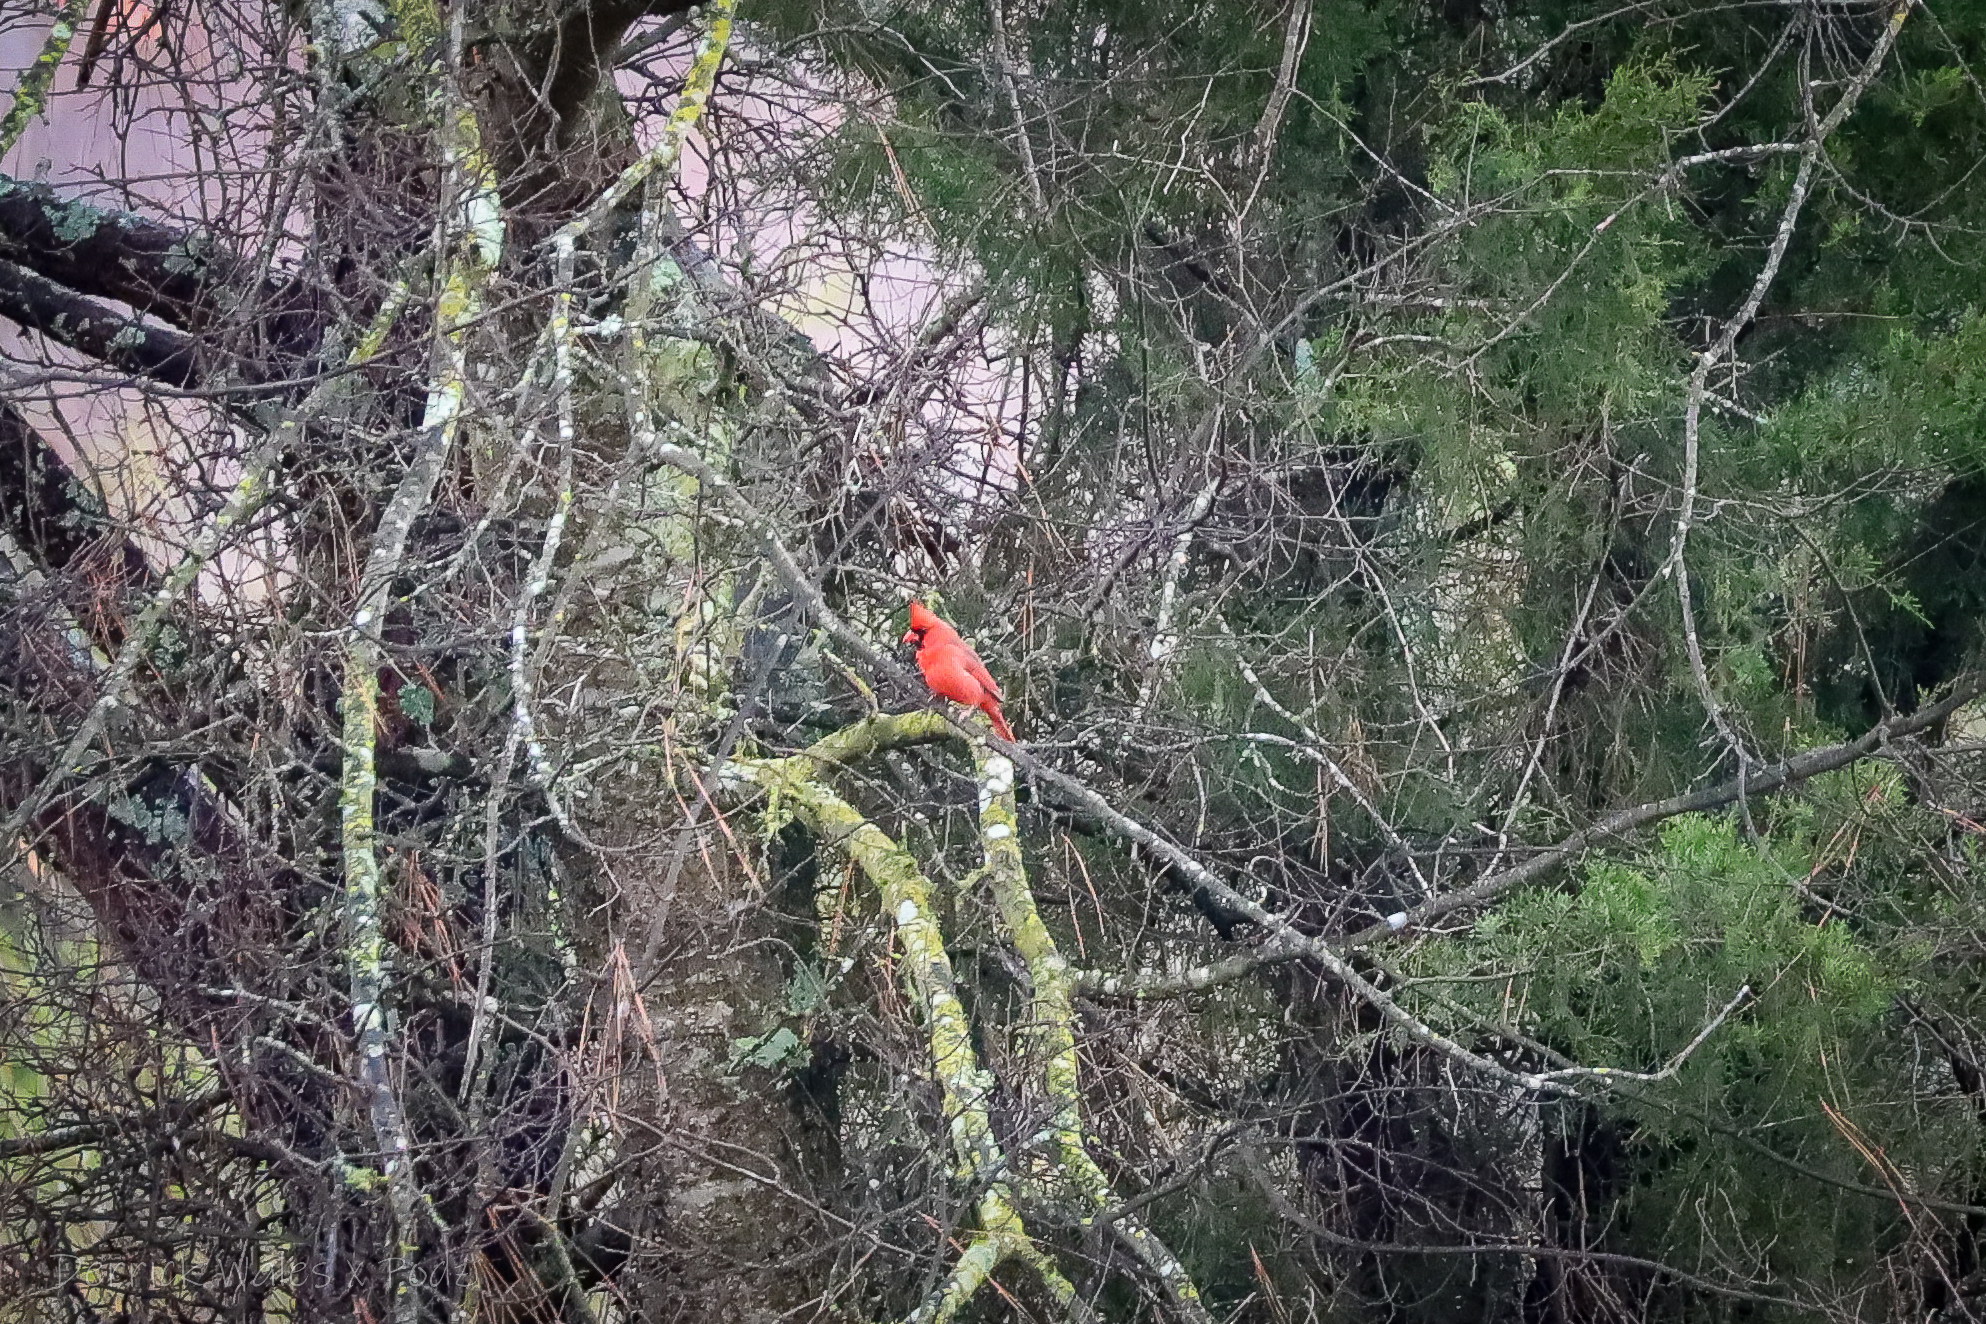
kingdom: Animalia
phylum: Chordata
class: Aves
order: Passeriformes
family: Cardinalidae
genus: Cardinalis
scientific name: Cardinalis cardinalis
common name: Northern cardinal
